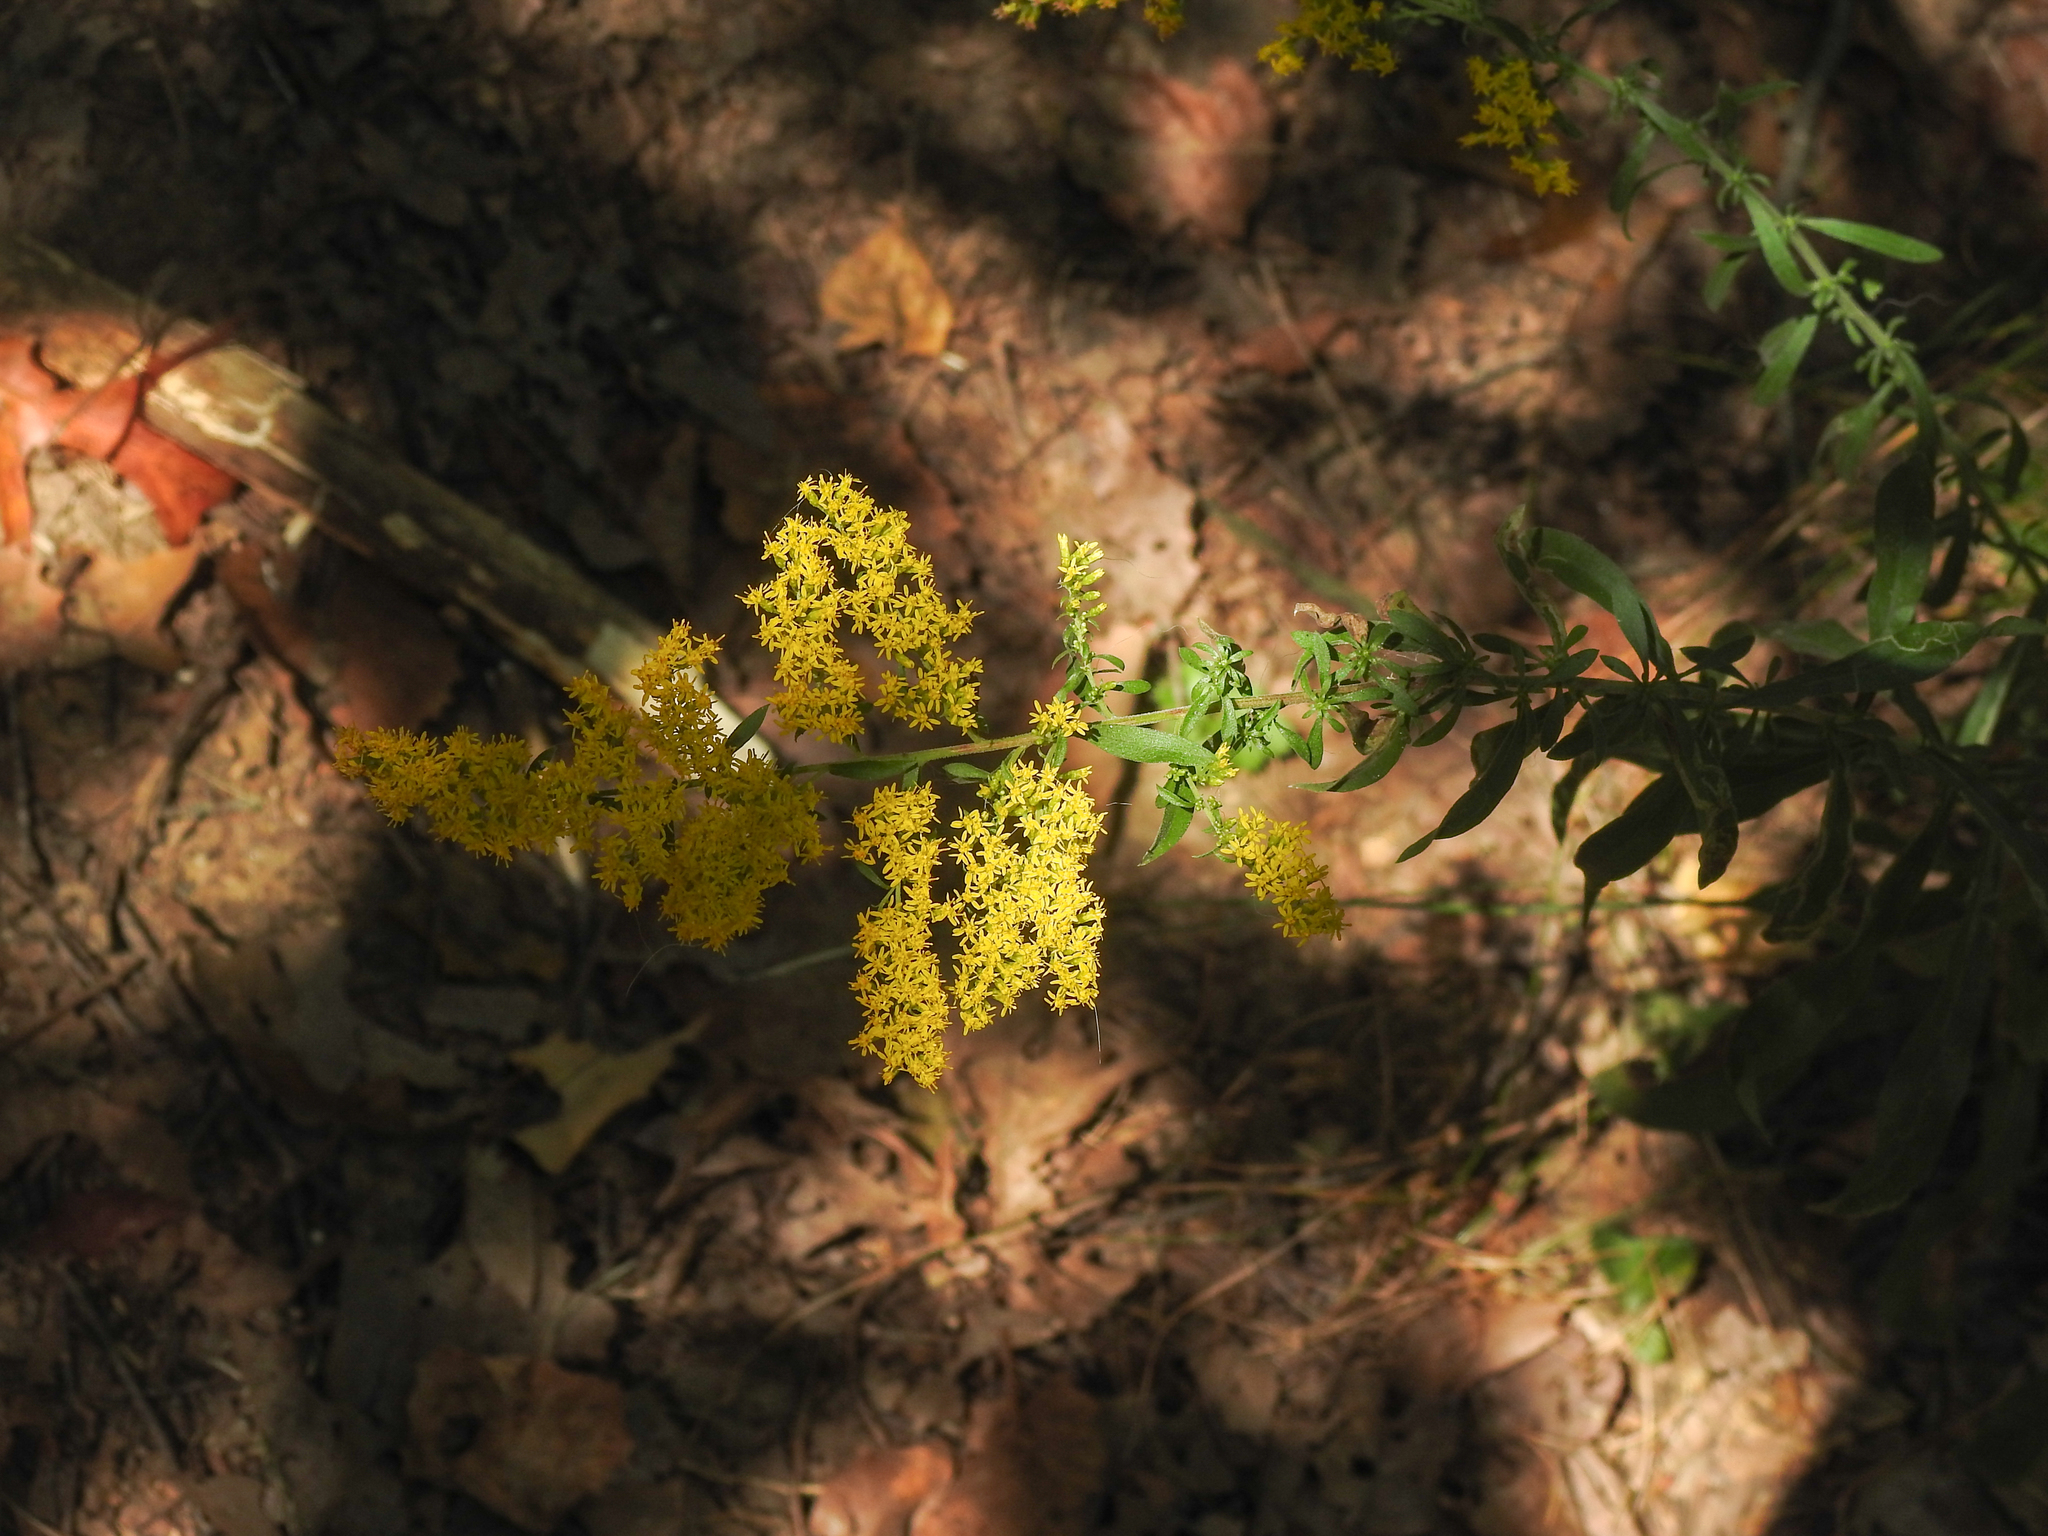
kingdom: Plantae
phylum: Tracheophyta
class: Magnoliopsida
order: Asterales
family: Asteraceae
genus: Solidago
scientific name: Solidago nemoralis
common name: Grey goldenrod
